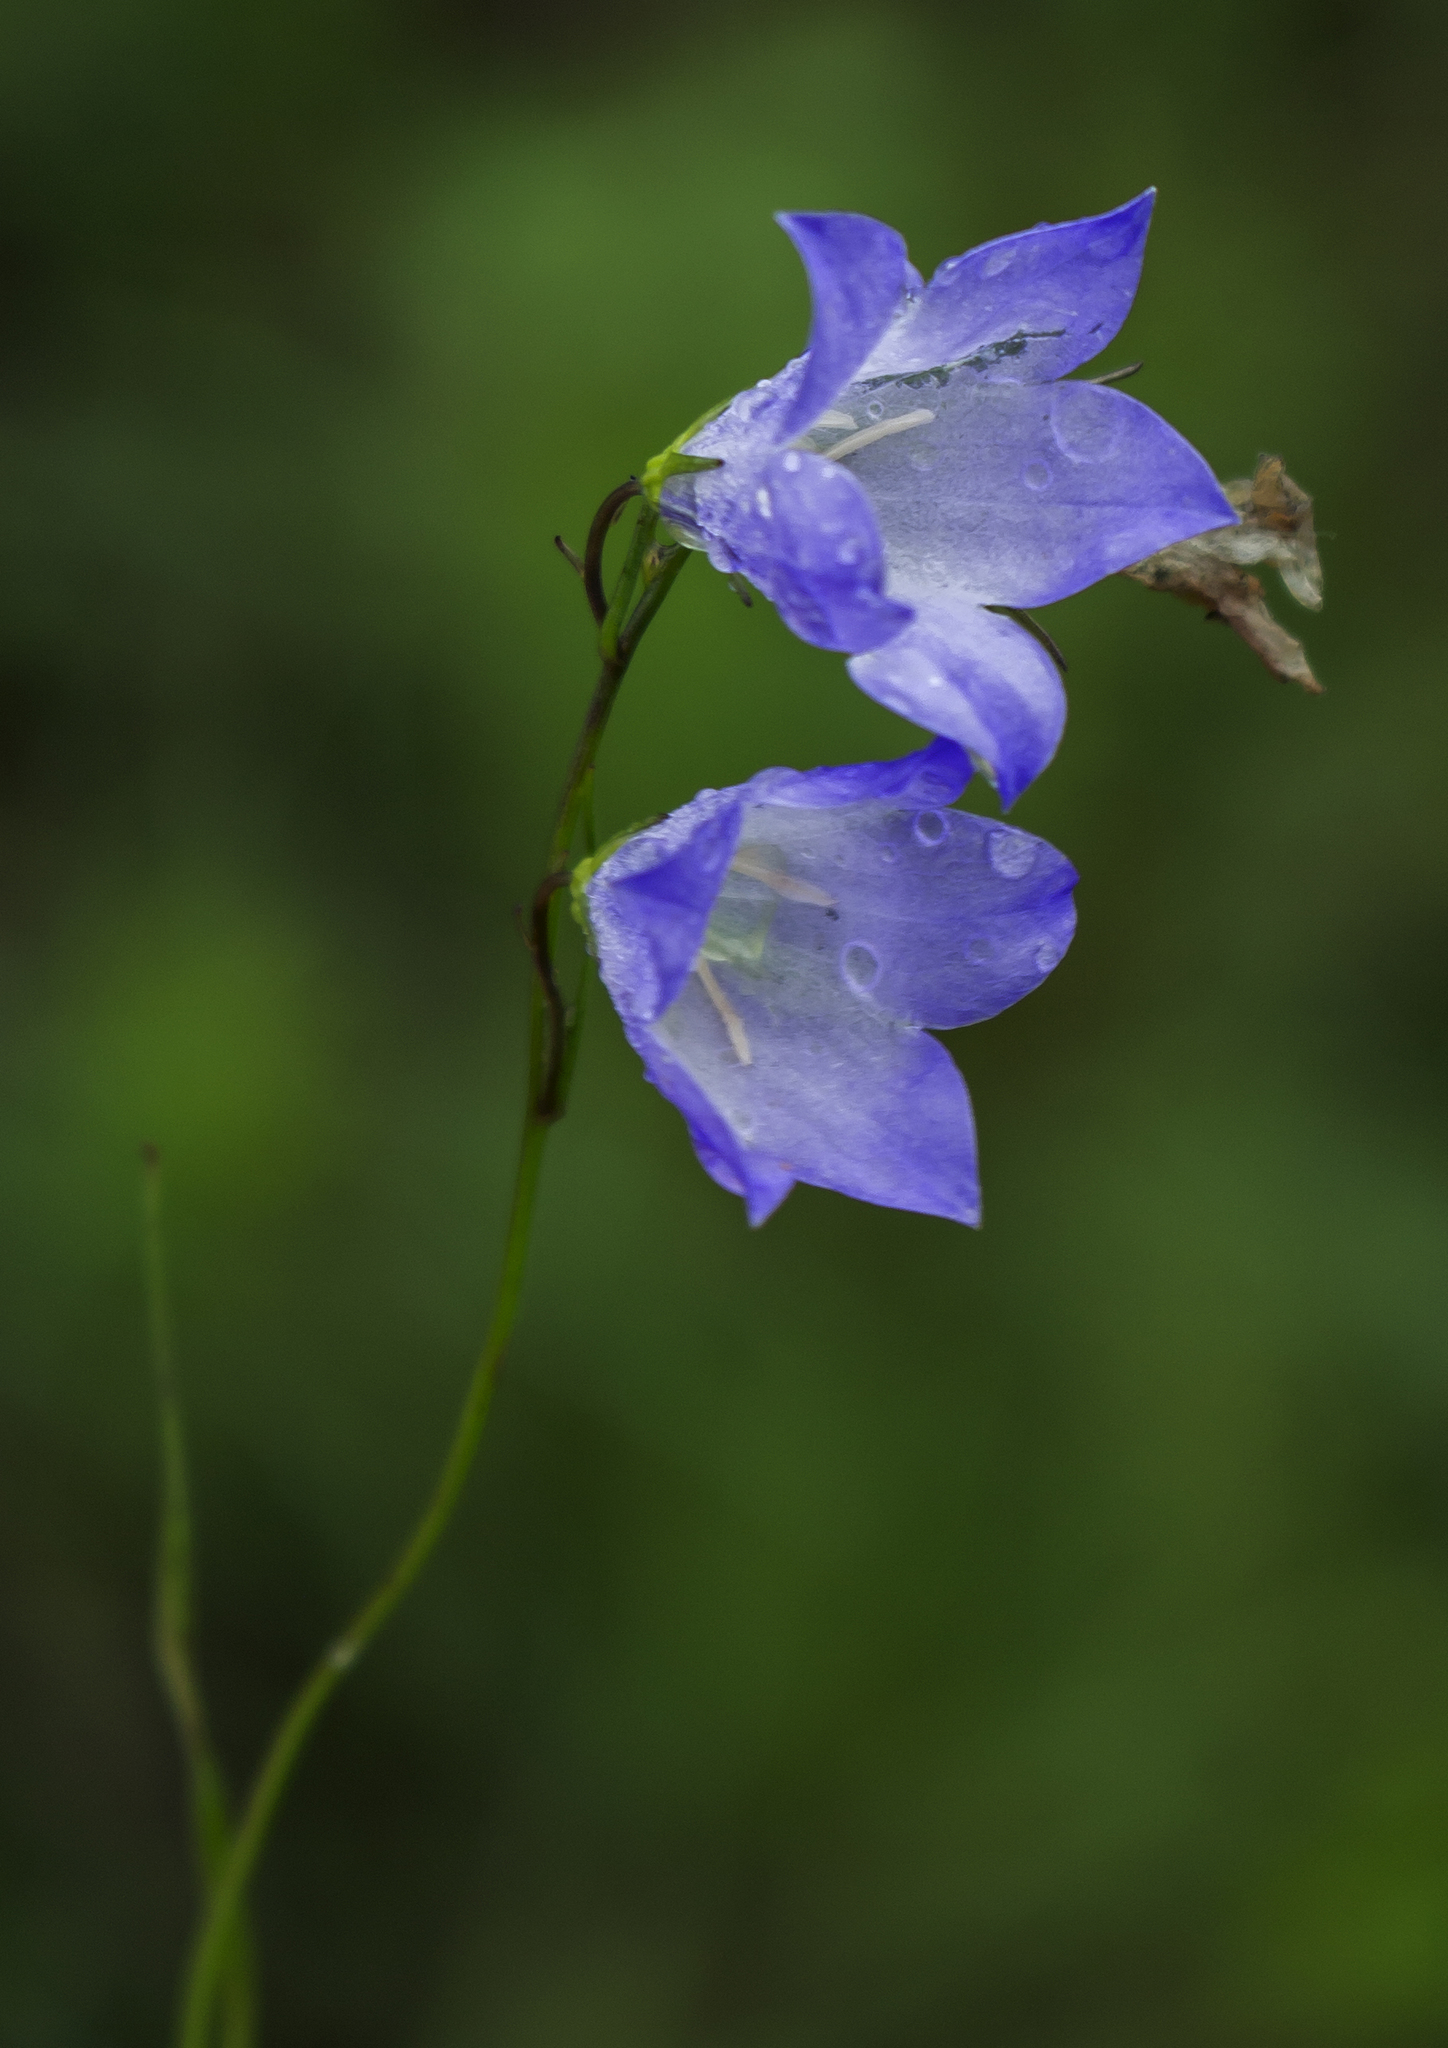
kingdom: Plantae
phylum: Tracheophyta
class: Magnoliopsida
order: Asterales
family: Campanulaceae
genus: Campanula
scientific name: Campanula intercedens
